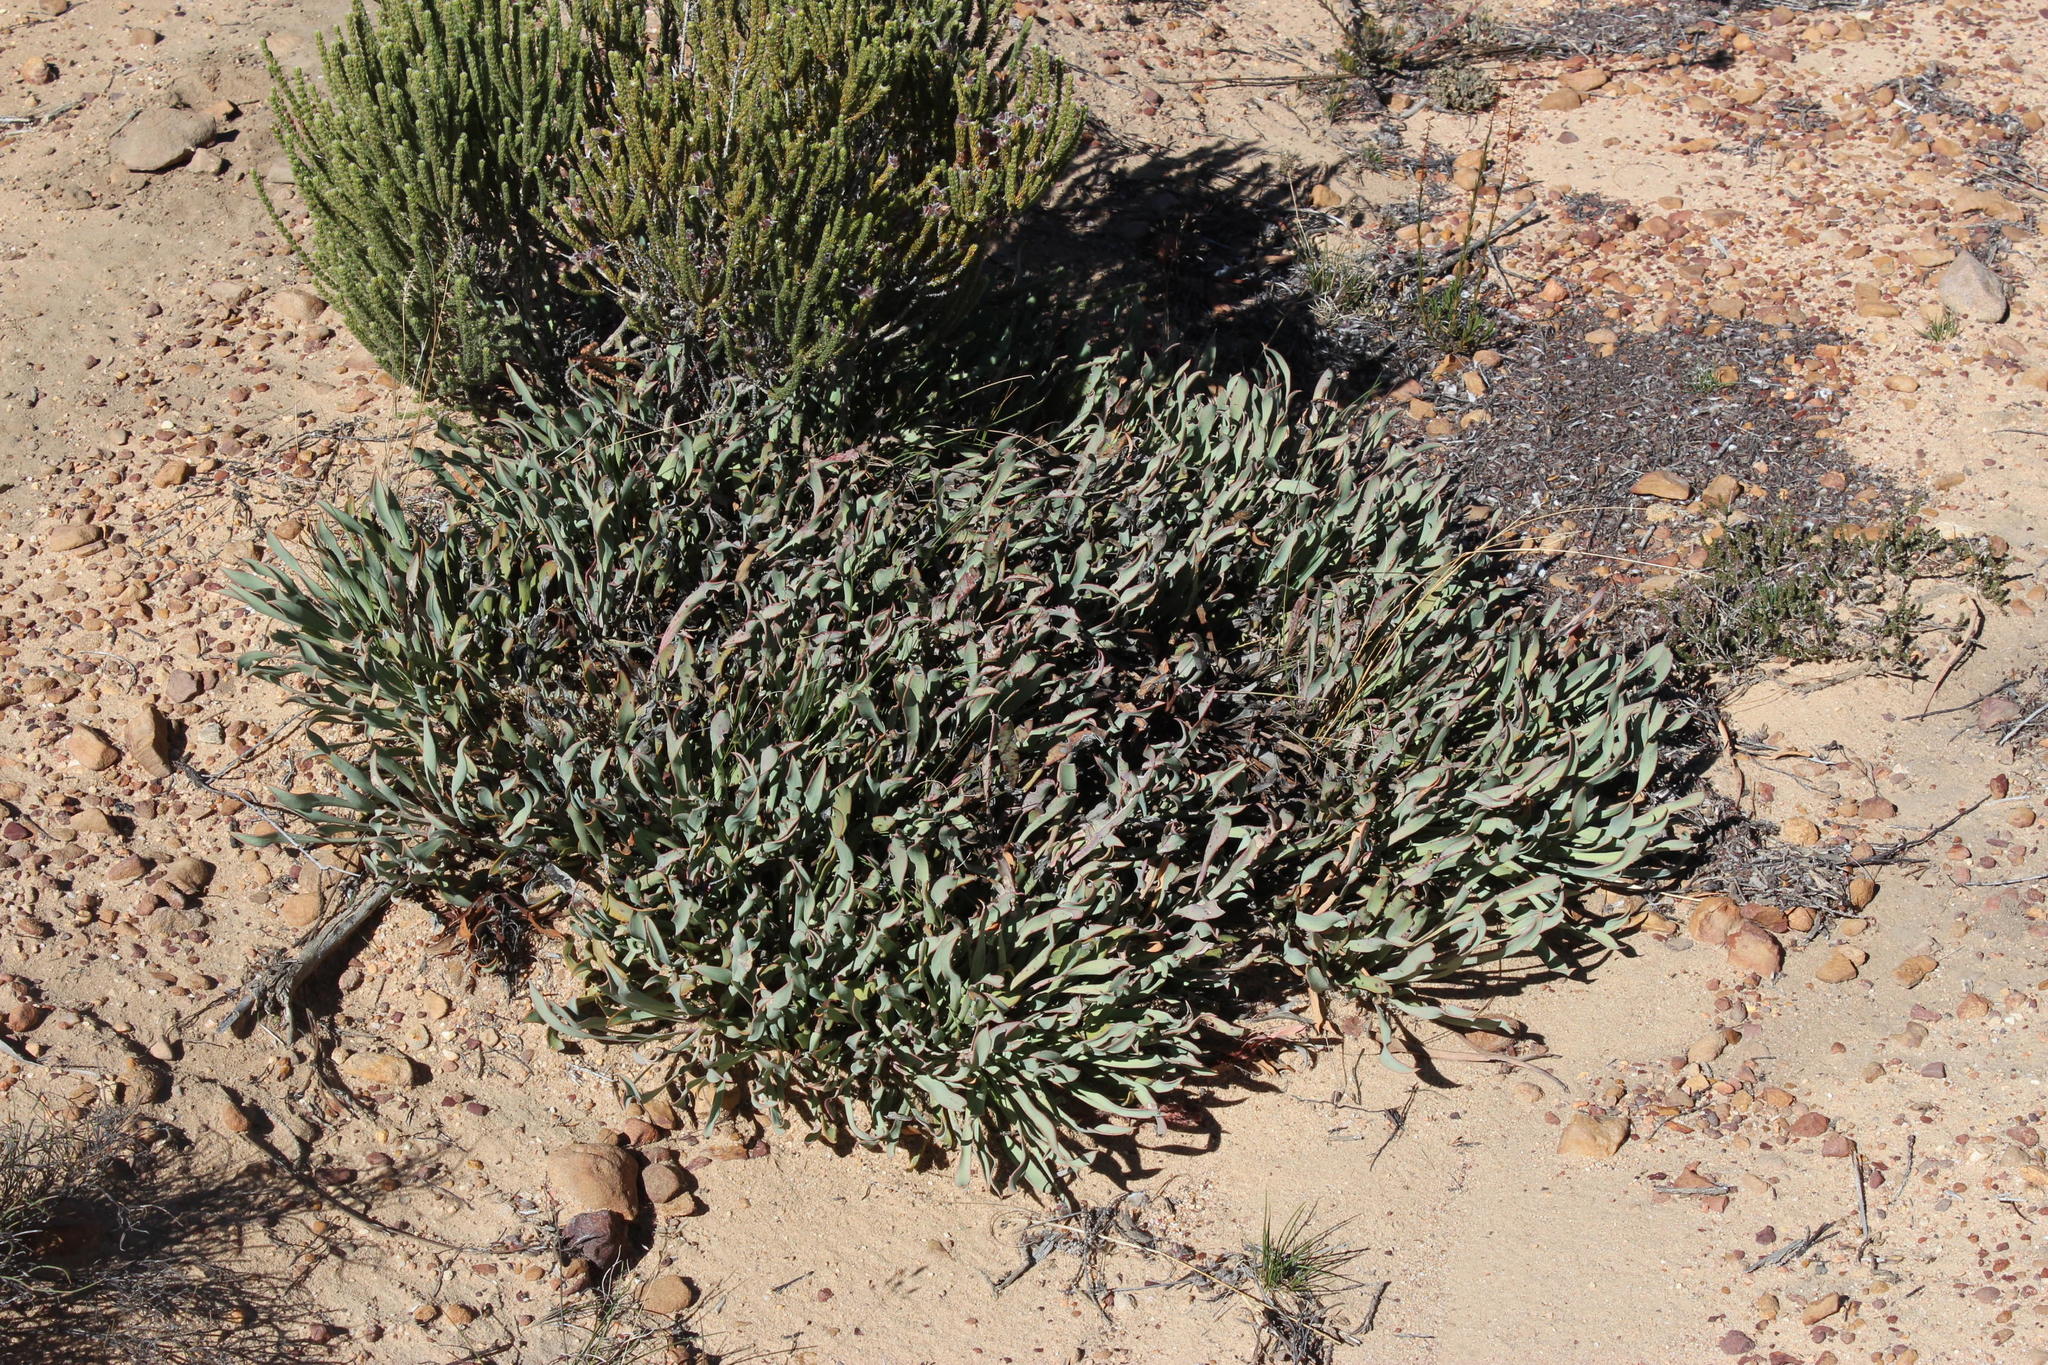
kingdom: Plantae
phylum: Tracheophyta
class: Magnoliopsida
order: Proteales
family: Proteaceae
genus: Protea
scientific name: Protea laevis
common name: Smooth-leaf sugarbush
